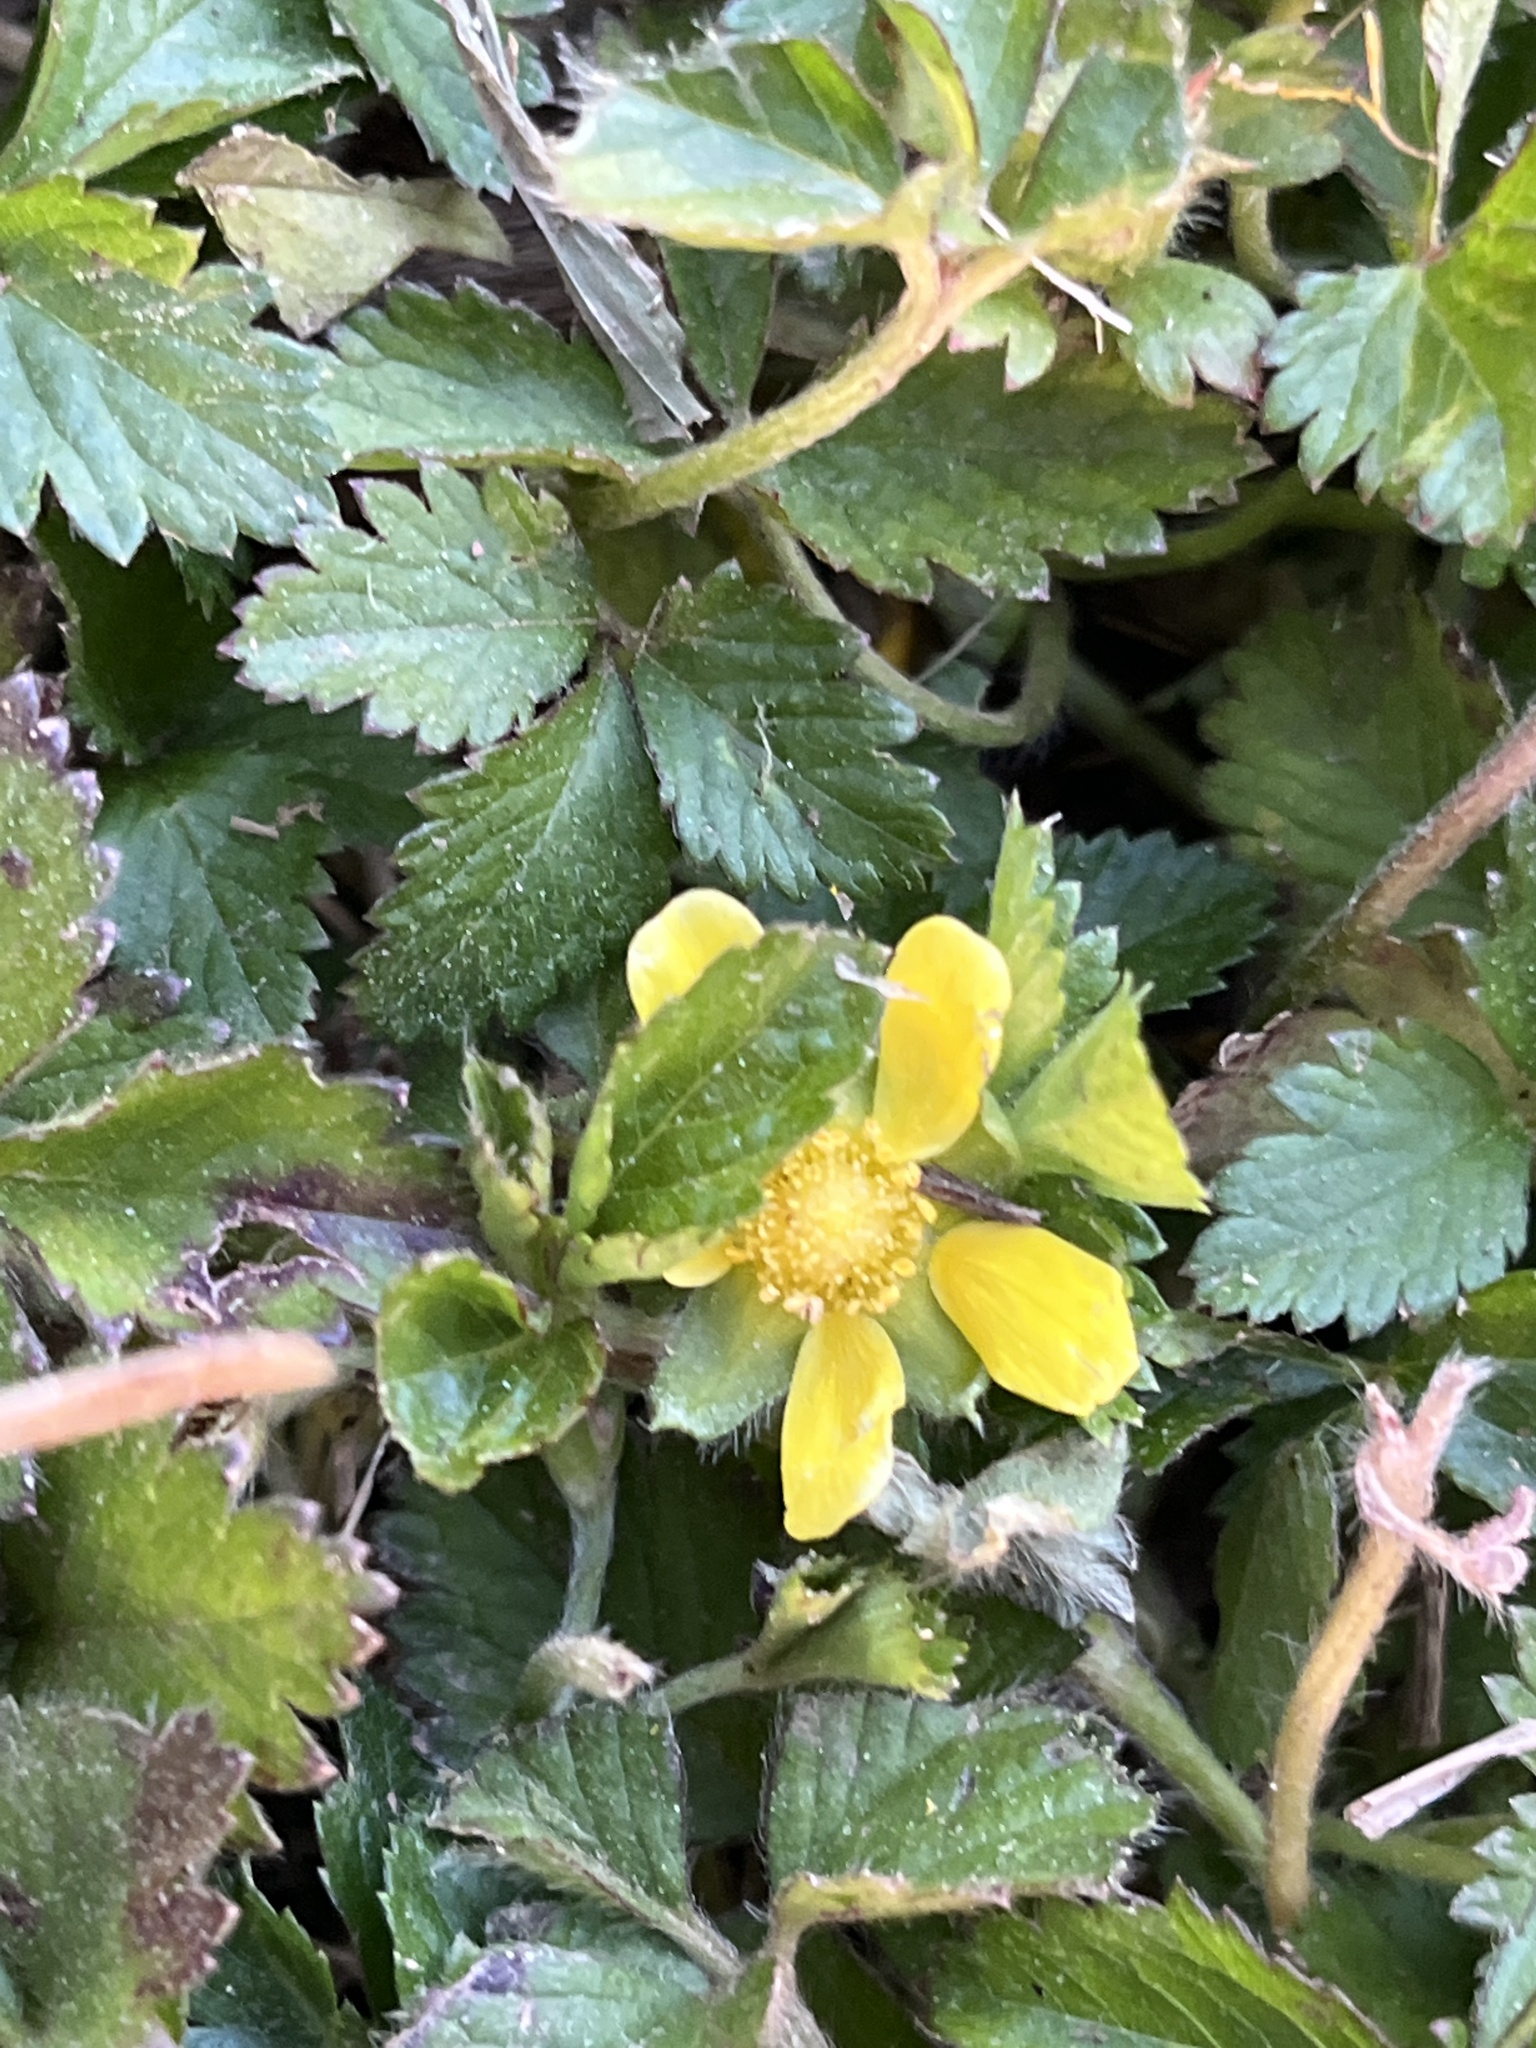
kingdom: Plantae
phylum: Tracheophyta
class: Magnoliopsida
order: Rosales
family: Rosaceae
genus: Potentilla
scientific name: Potentilla indica
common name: Yellow-flowered strawberry
